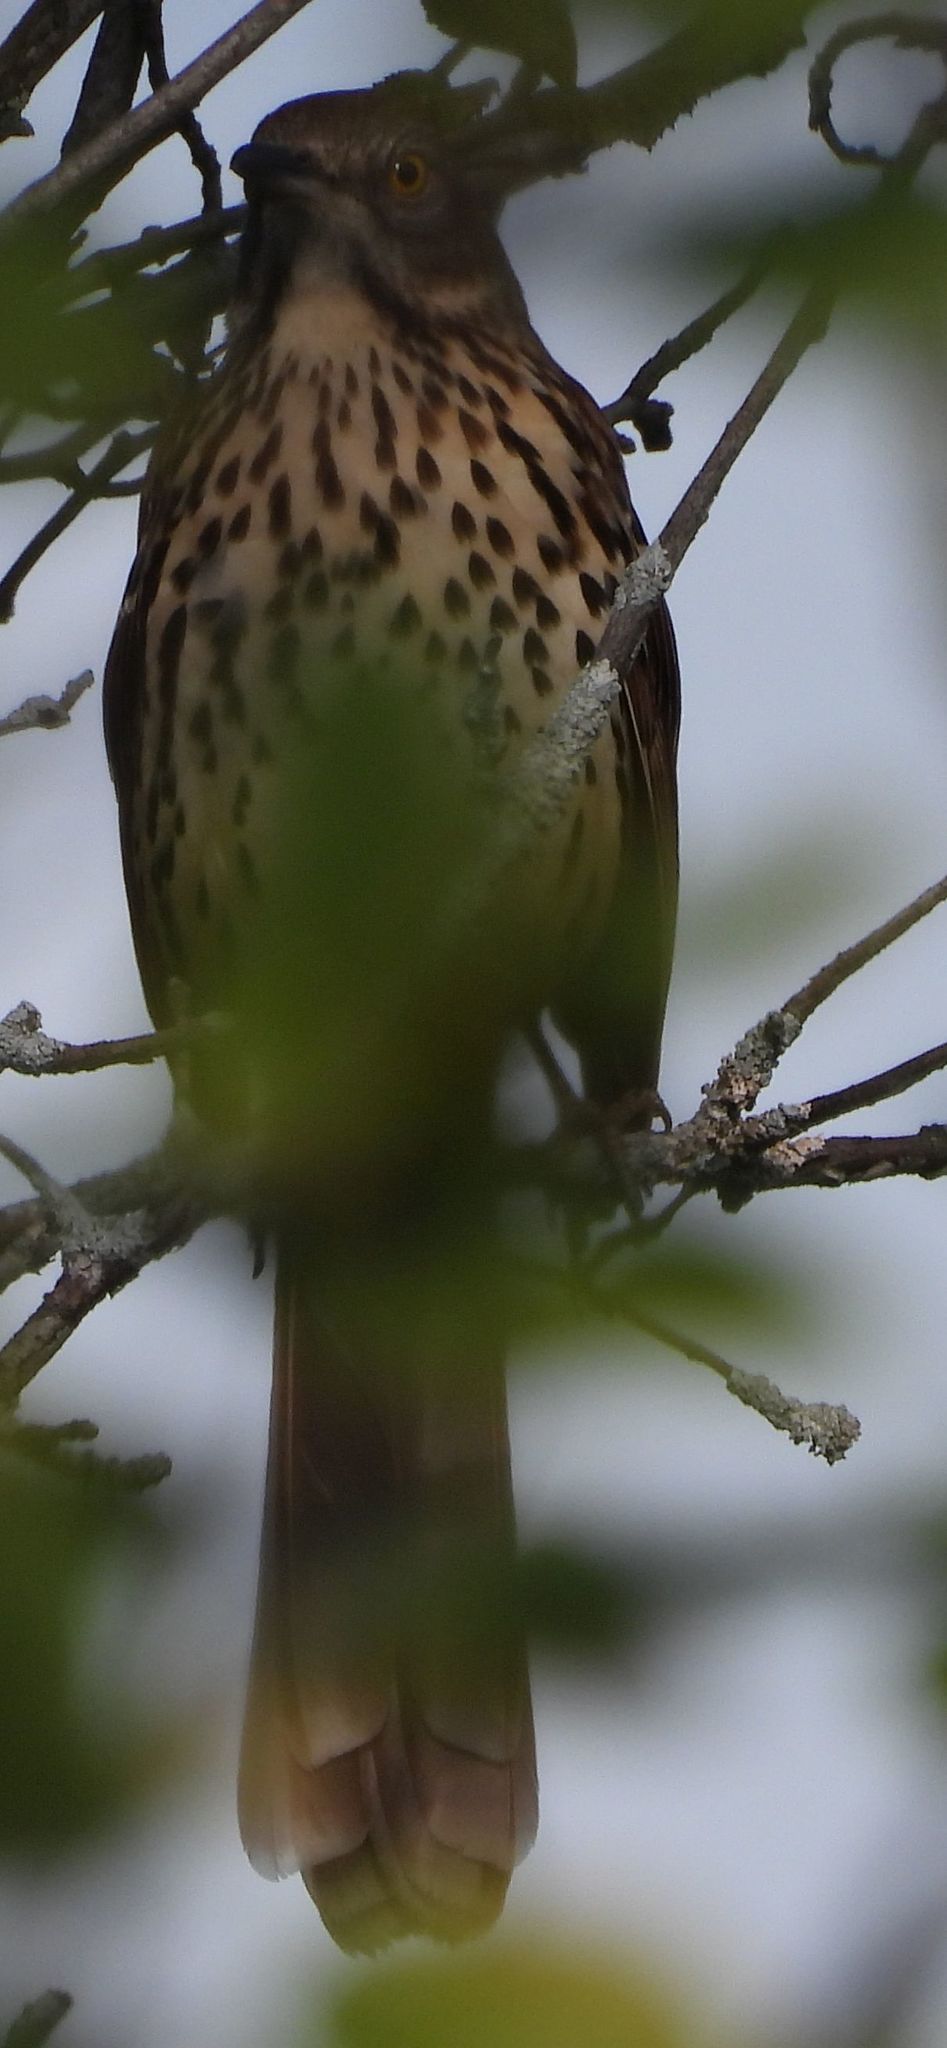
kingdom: Animalia
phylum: Chordata
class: Aves
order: Passeriformes
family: Mimidae
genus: Toxostoma
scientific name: Toxostoma rufum
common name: Brown thrasher
